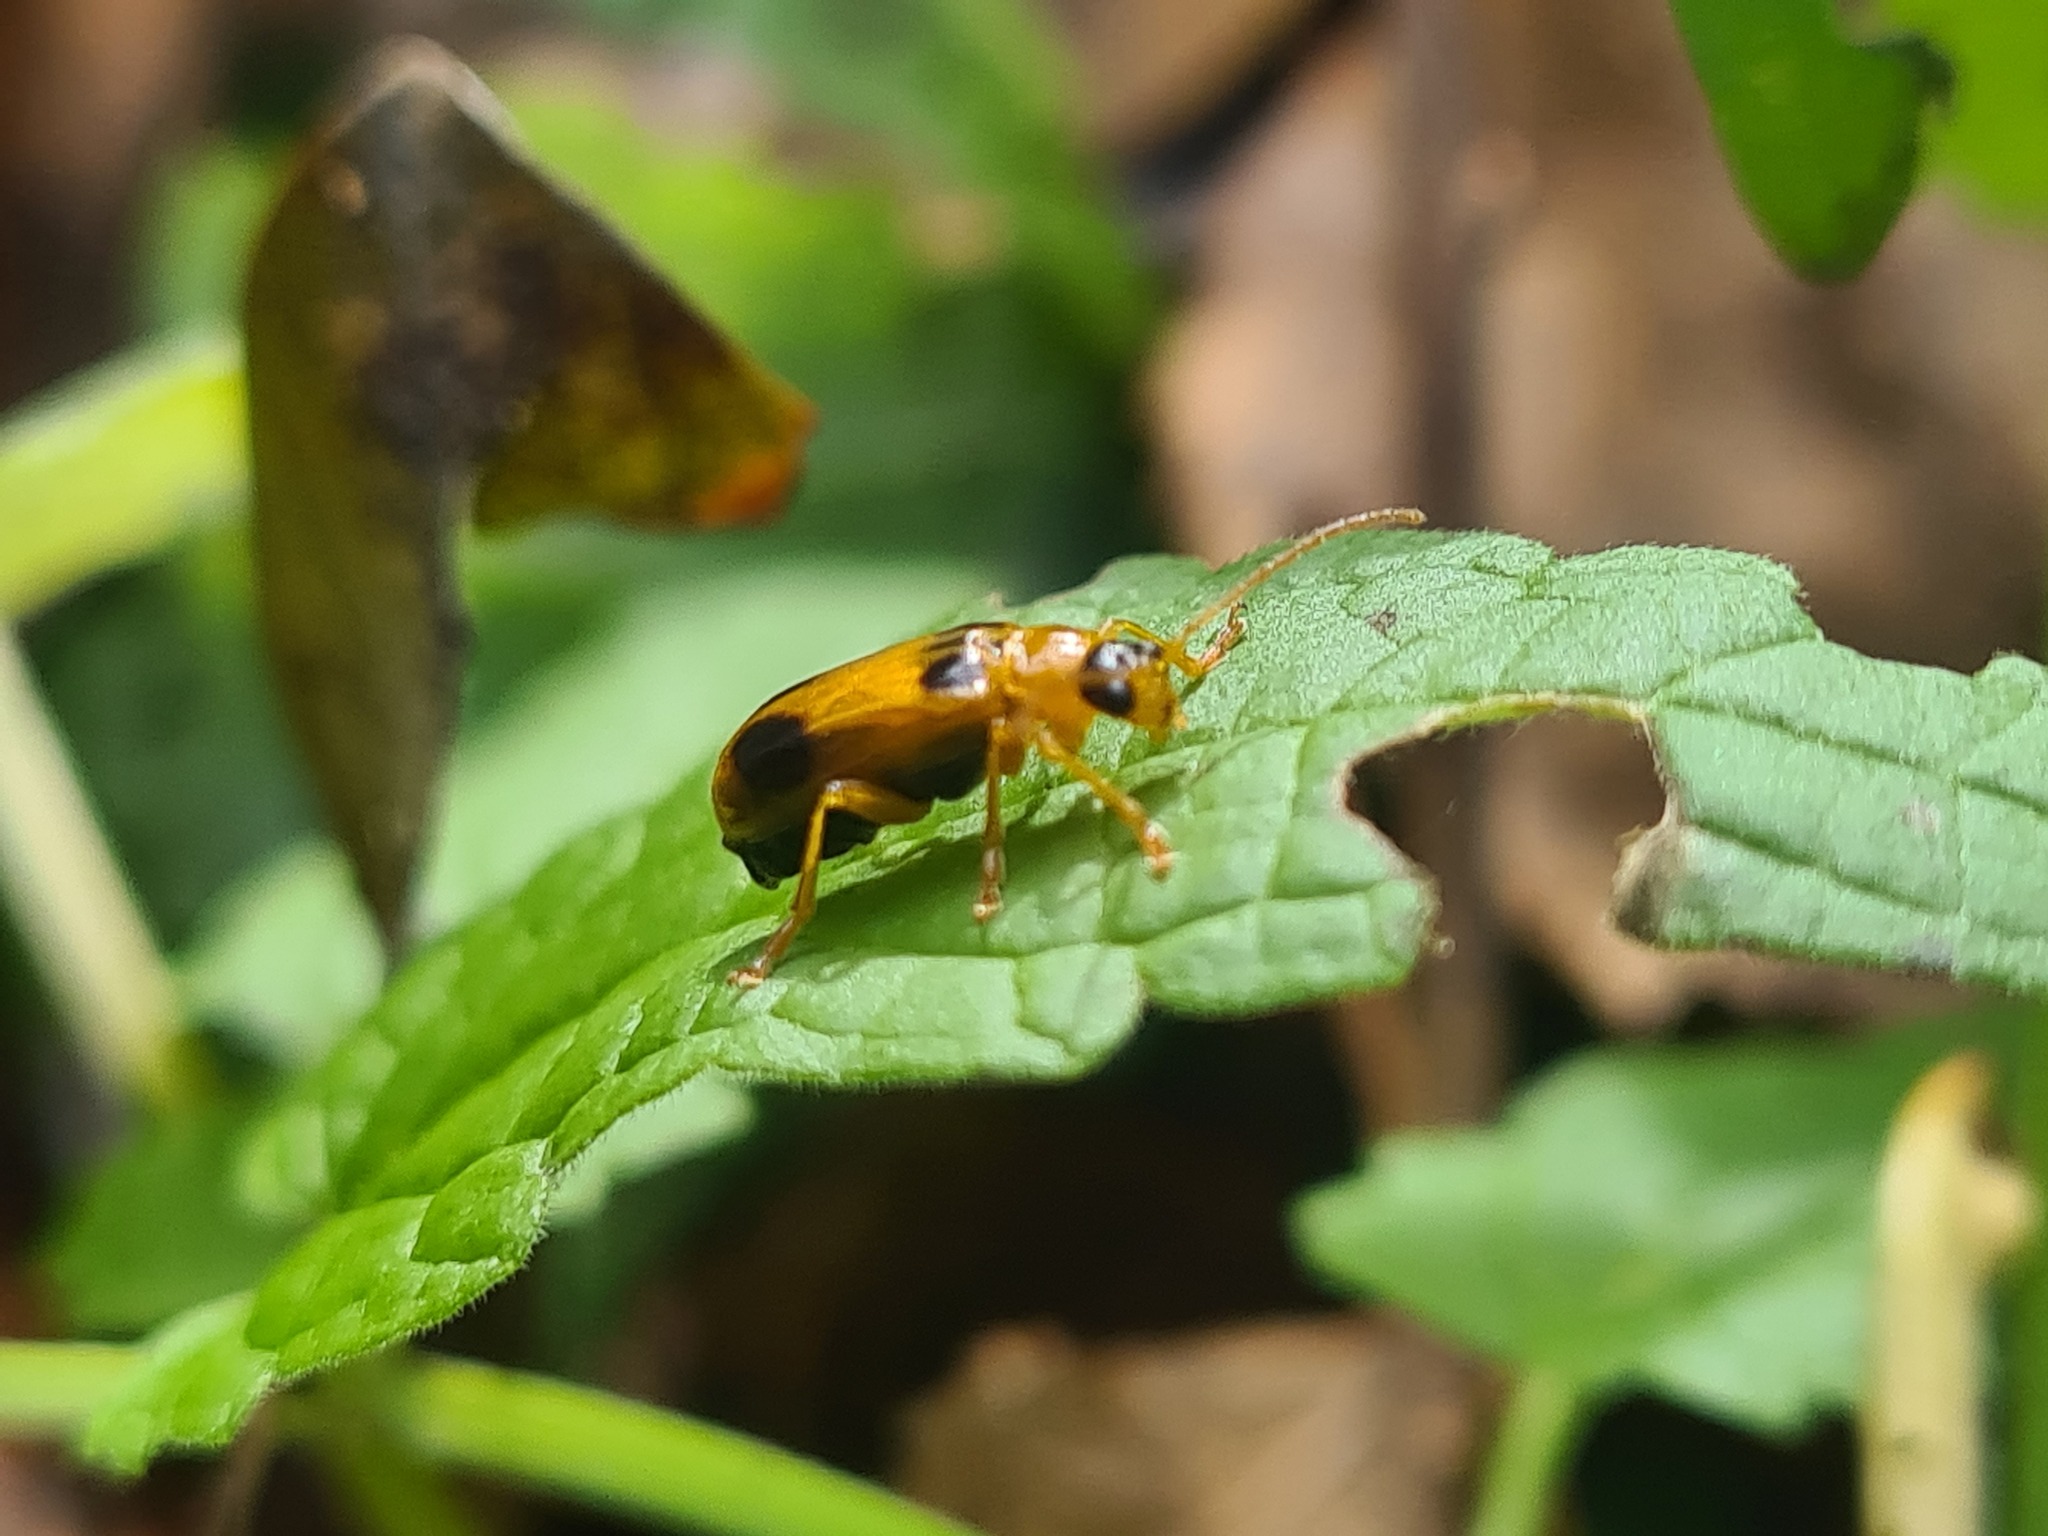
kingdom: Animalia
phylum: Arthropoda
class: Insecta
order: Coleoptera
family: Chrysomelidae
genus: Phyllobrotica
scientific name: Phyllobrotica quadrimaculata
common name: Skullcap leaf beetle
